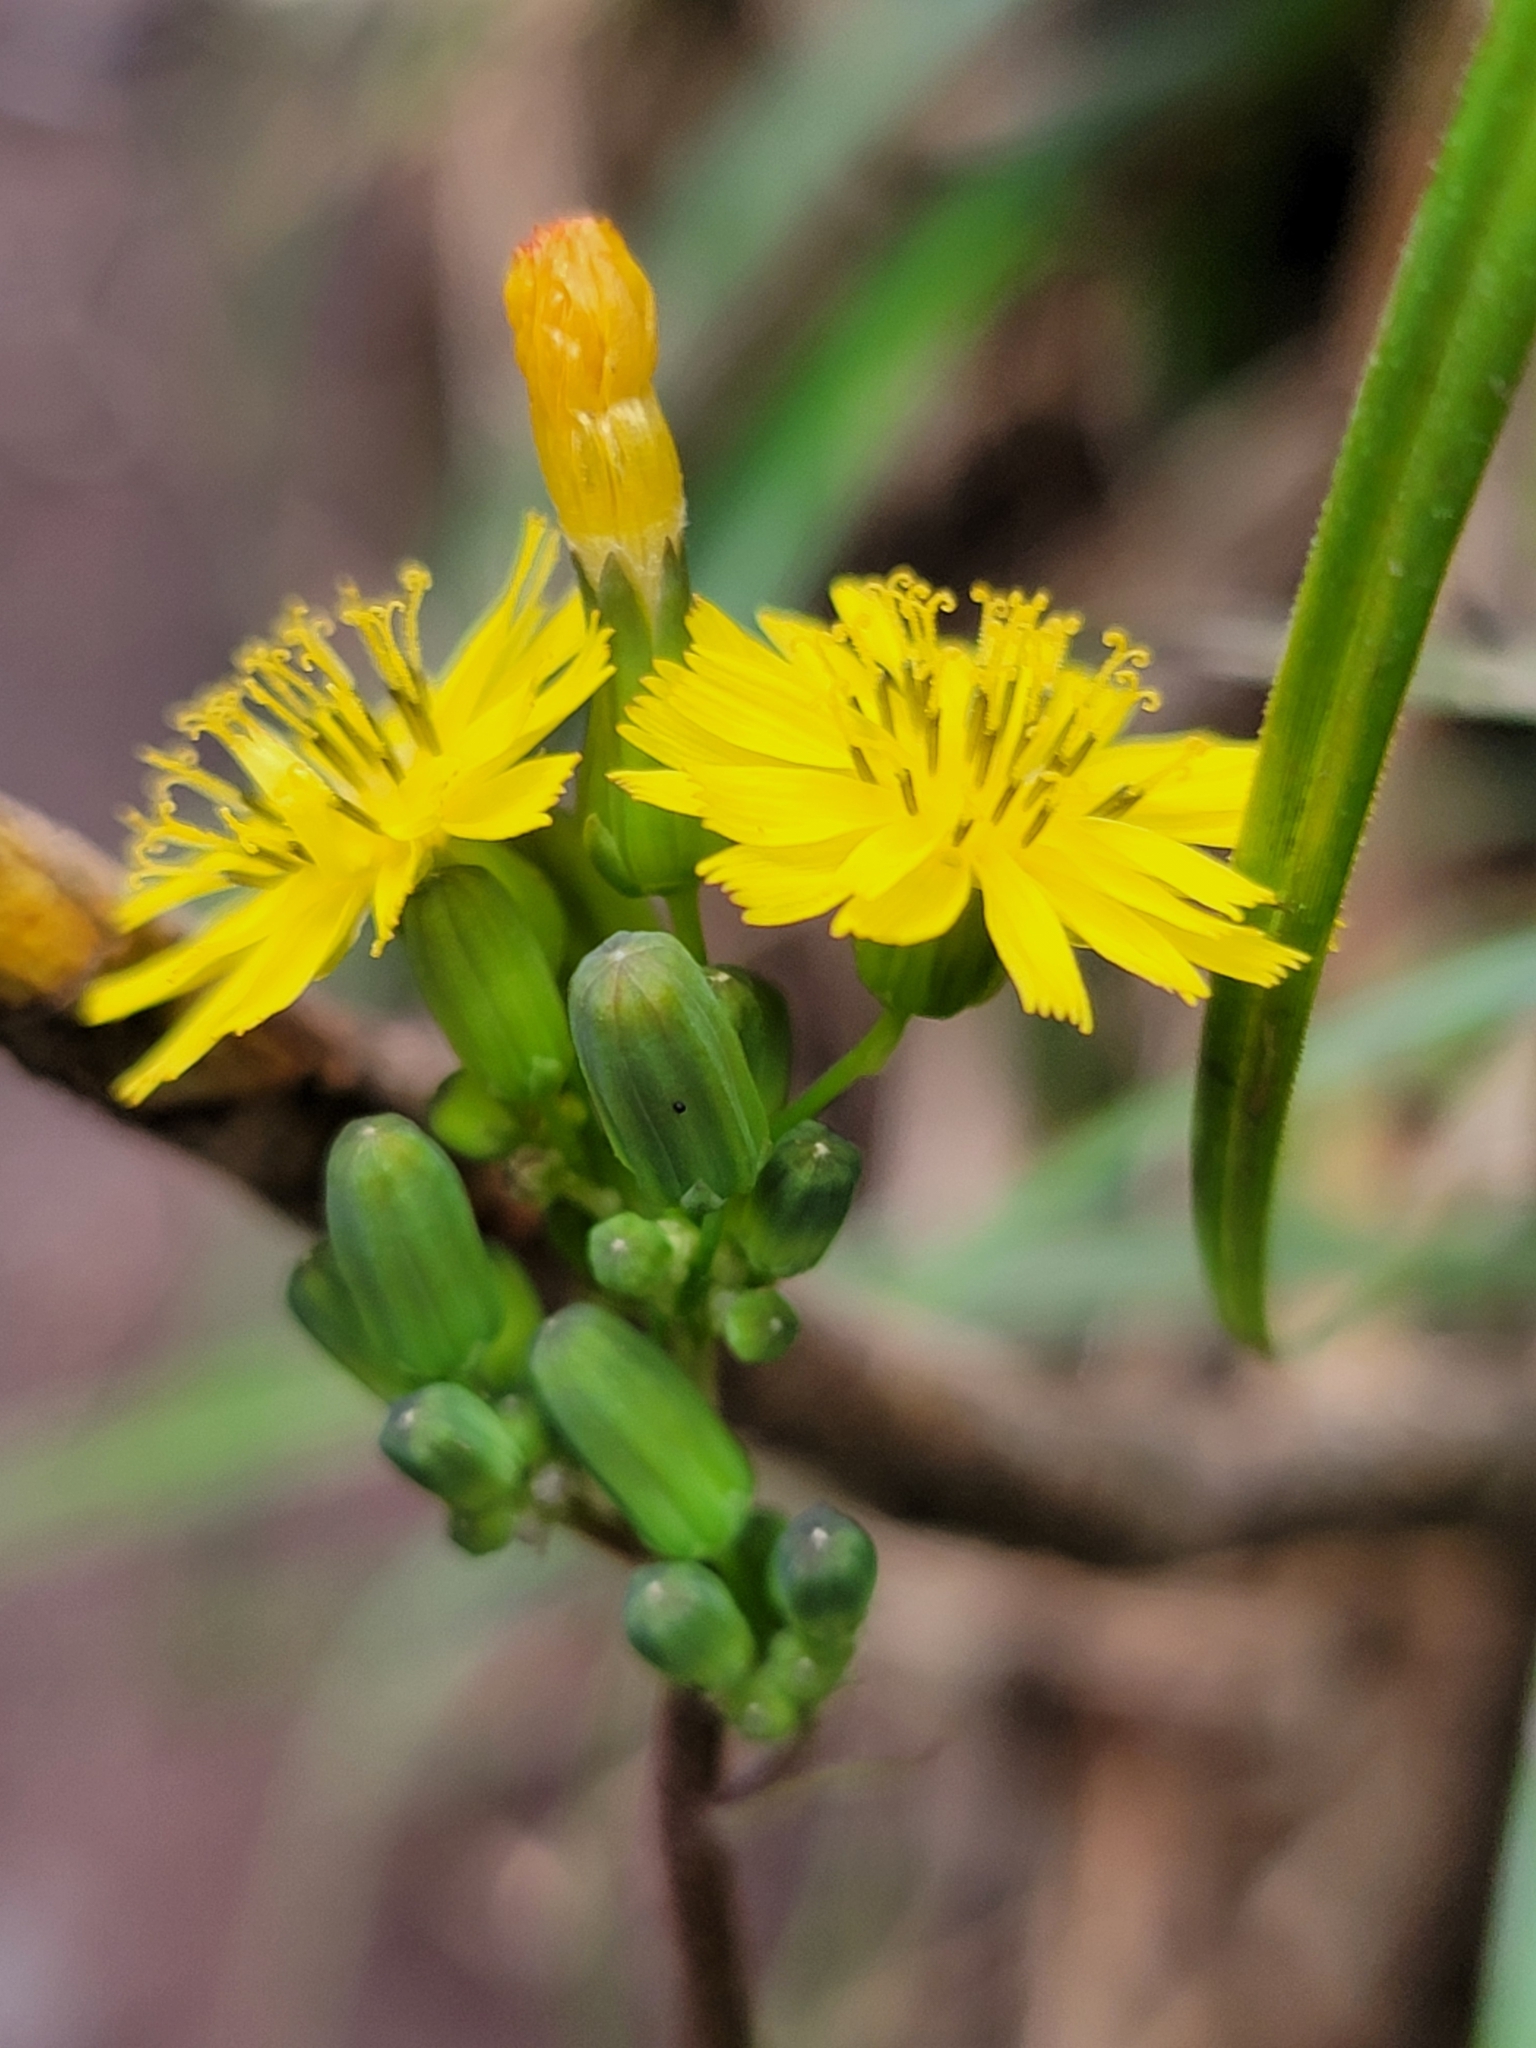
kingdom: Plantae
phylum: Tracheophyta
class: Magnoliopsida
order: Asterales
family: Asteraceae
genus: Youngia
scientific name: Youngia japonica
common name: Oriental false hawksbeard
